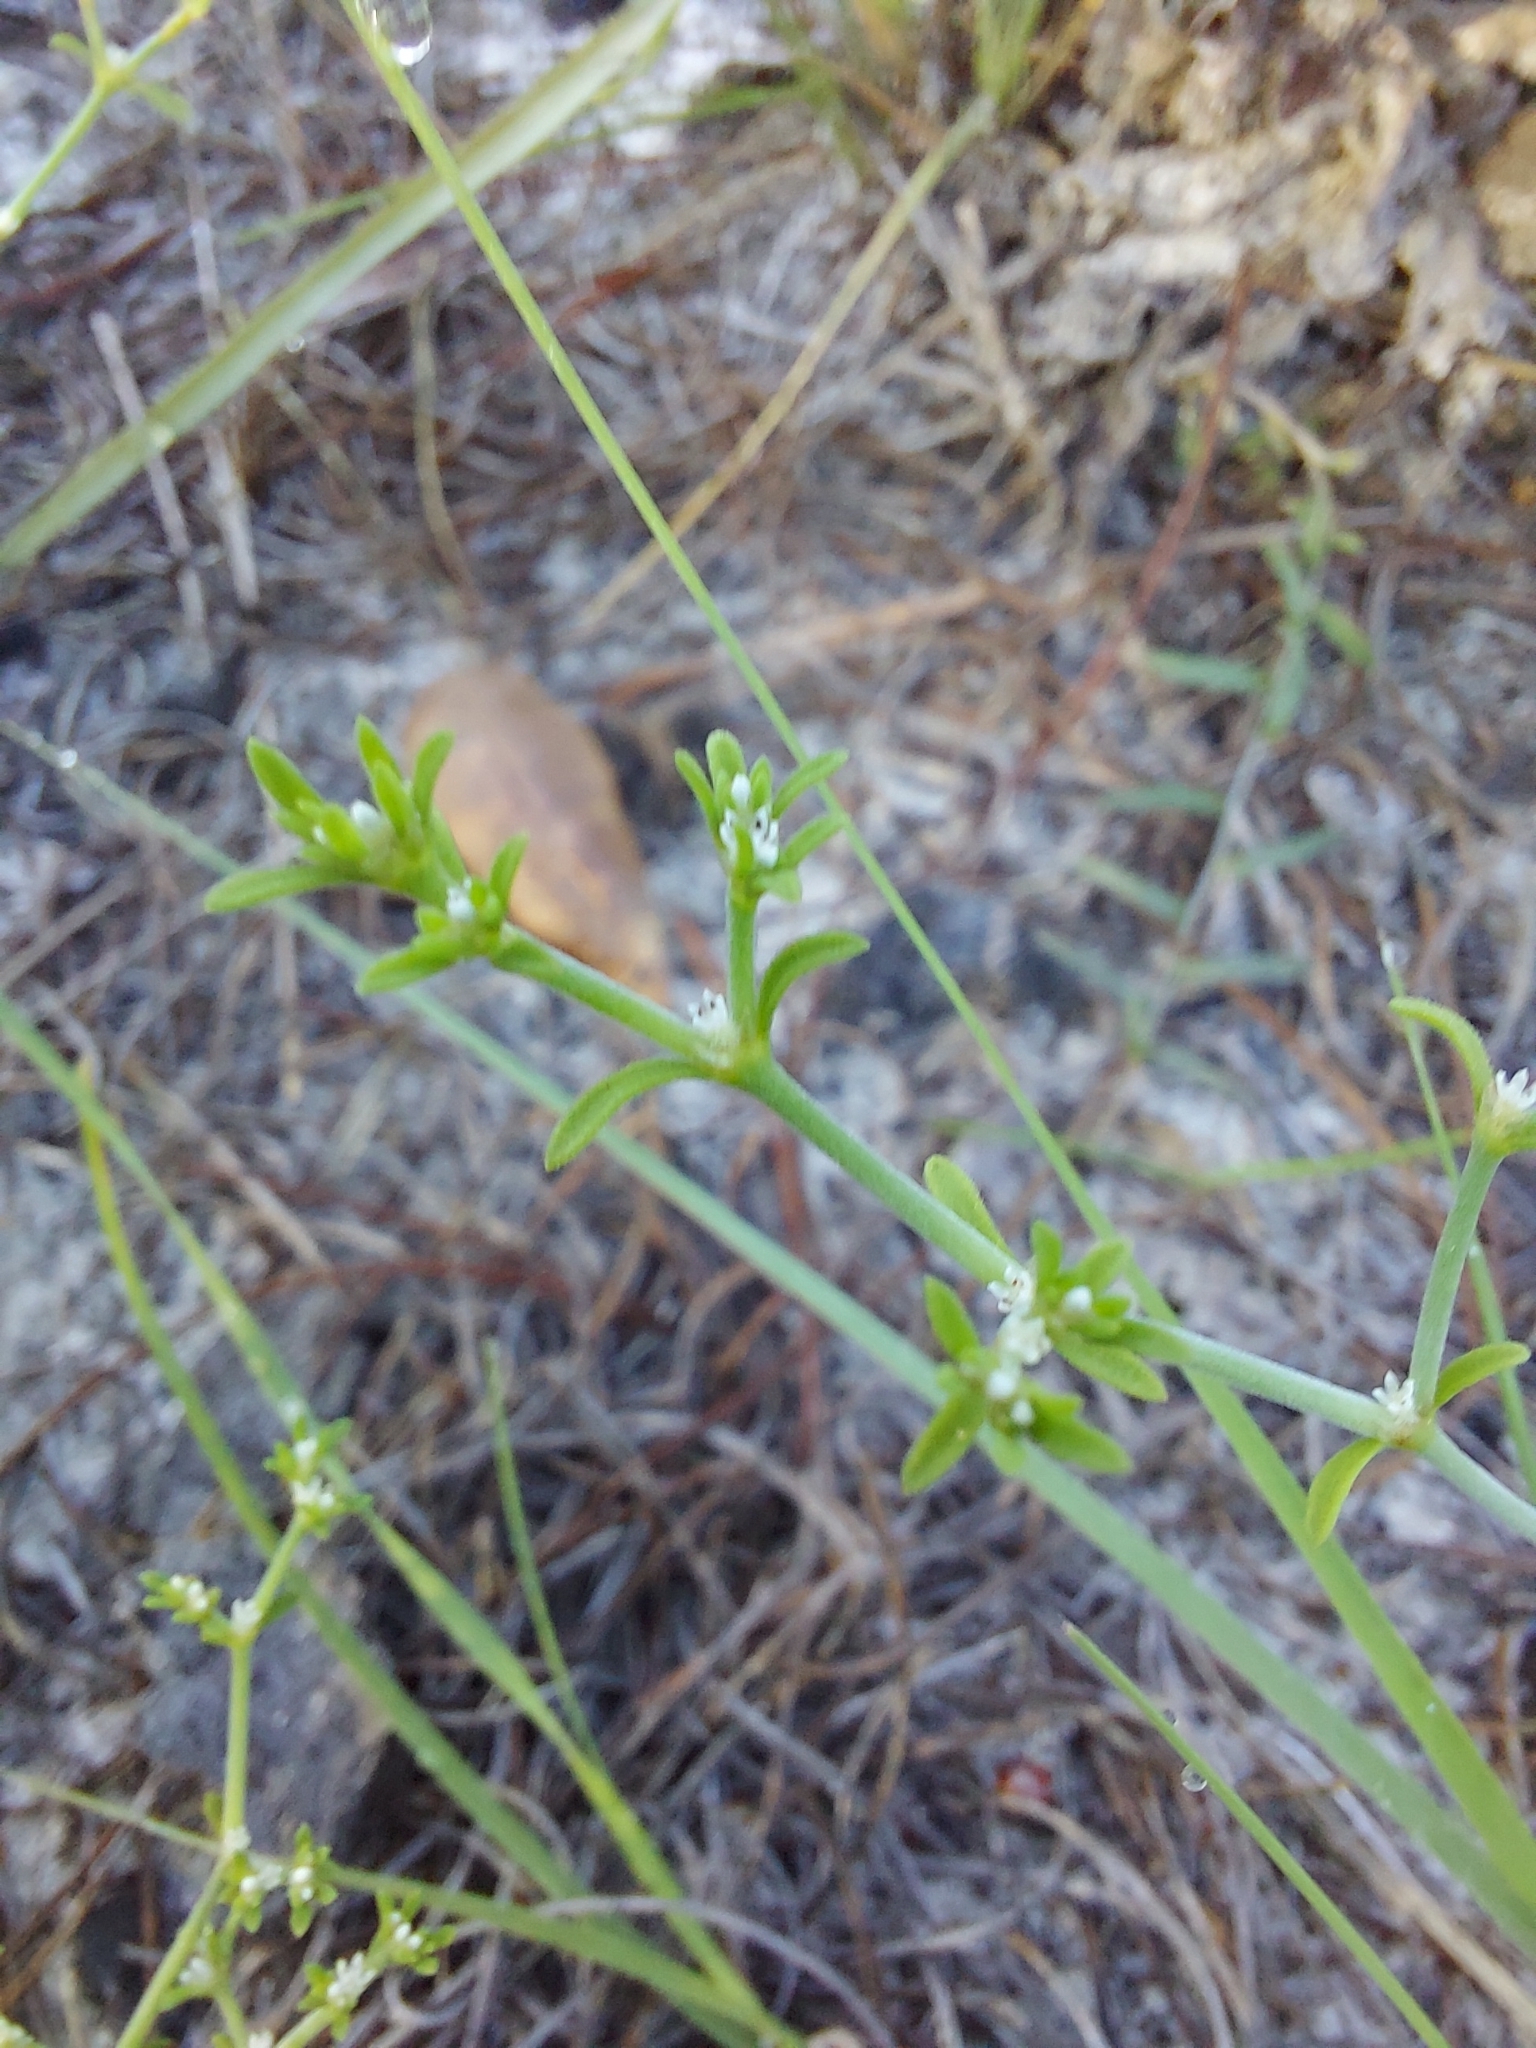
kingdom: Plantae
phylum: Tracheophyta
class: Magnoliopsida
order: Caryophyllales
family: Caryophyllaceae
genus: Paronychia
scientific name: Paronychia patula
